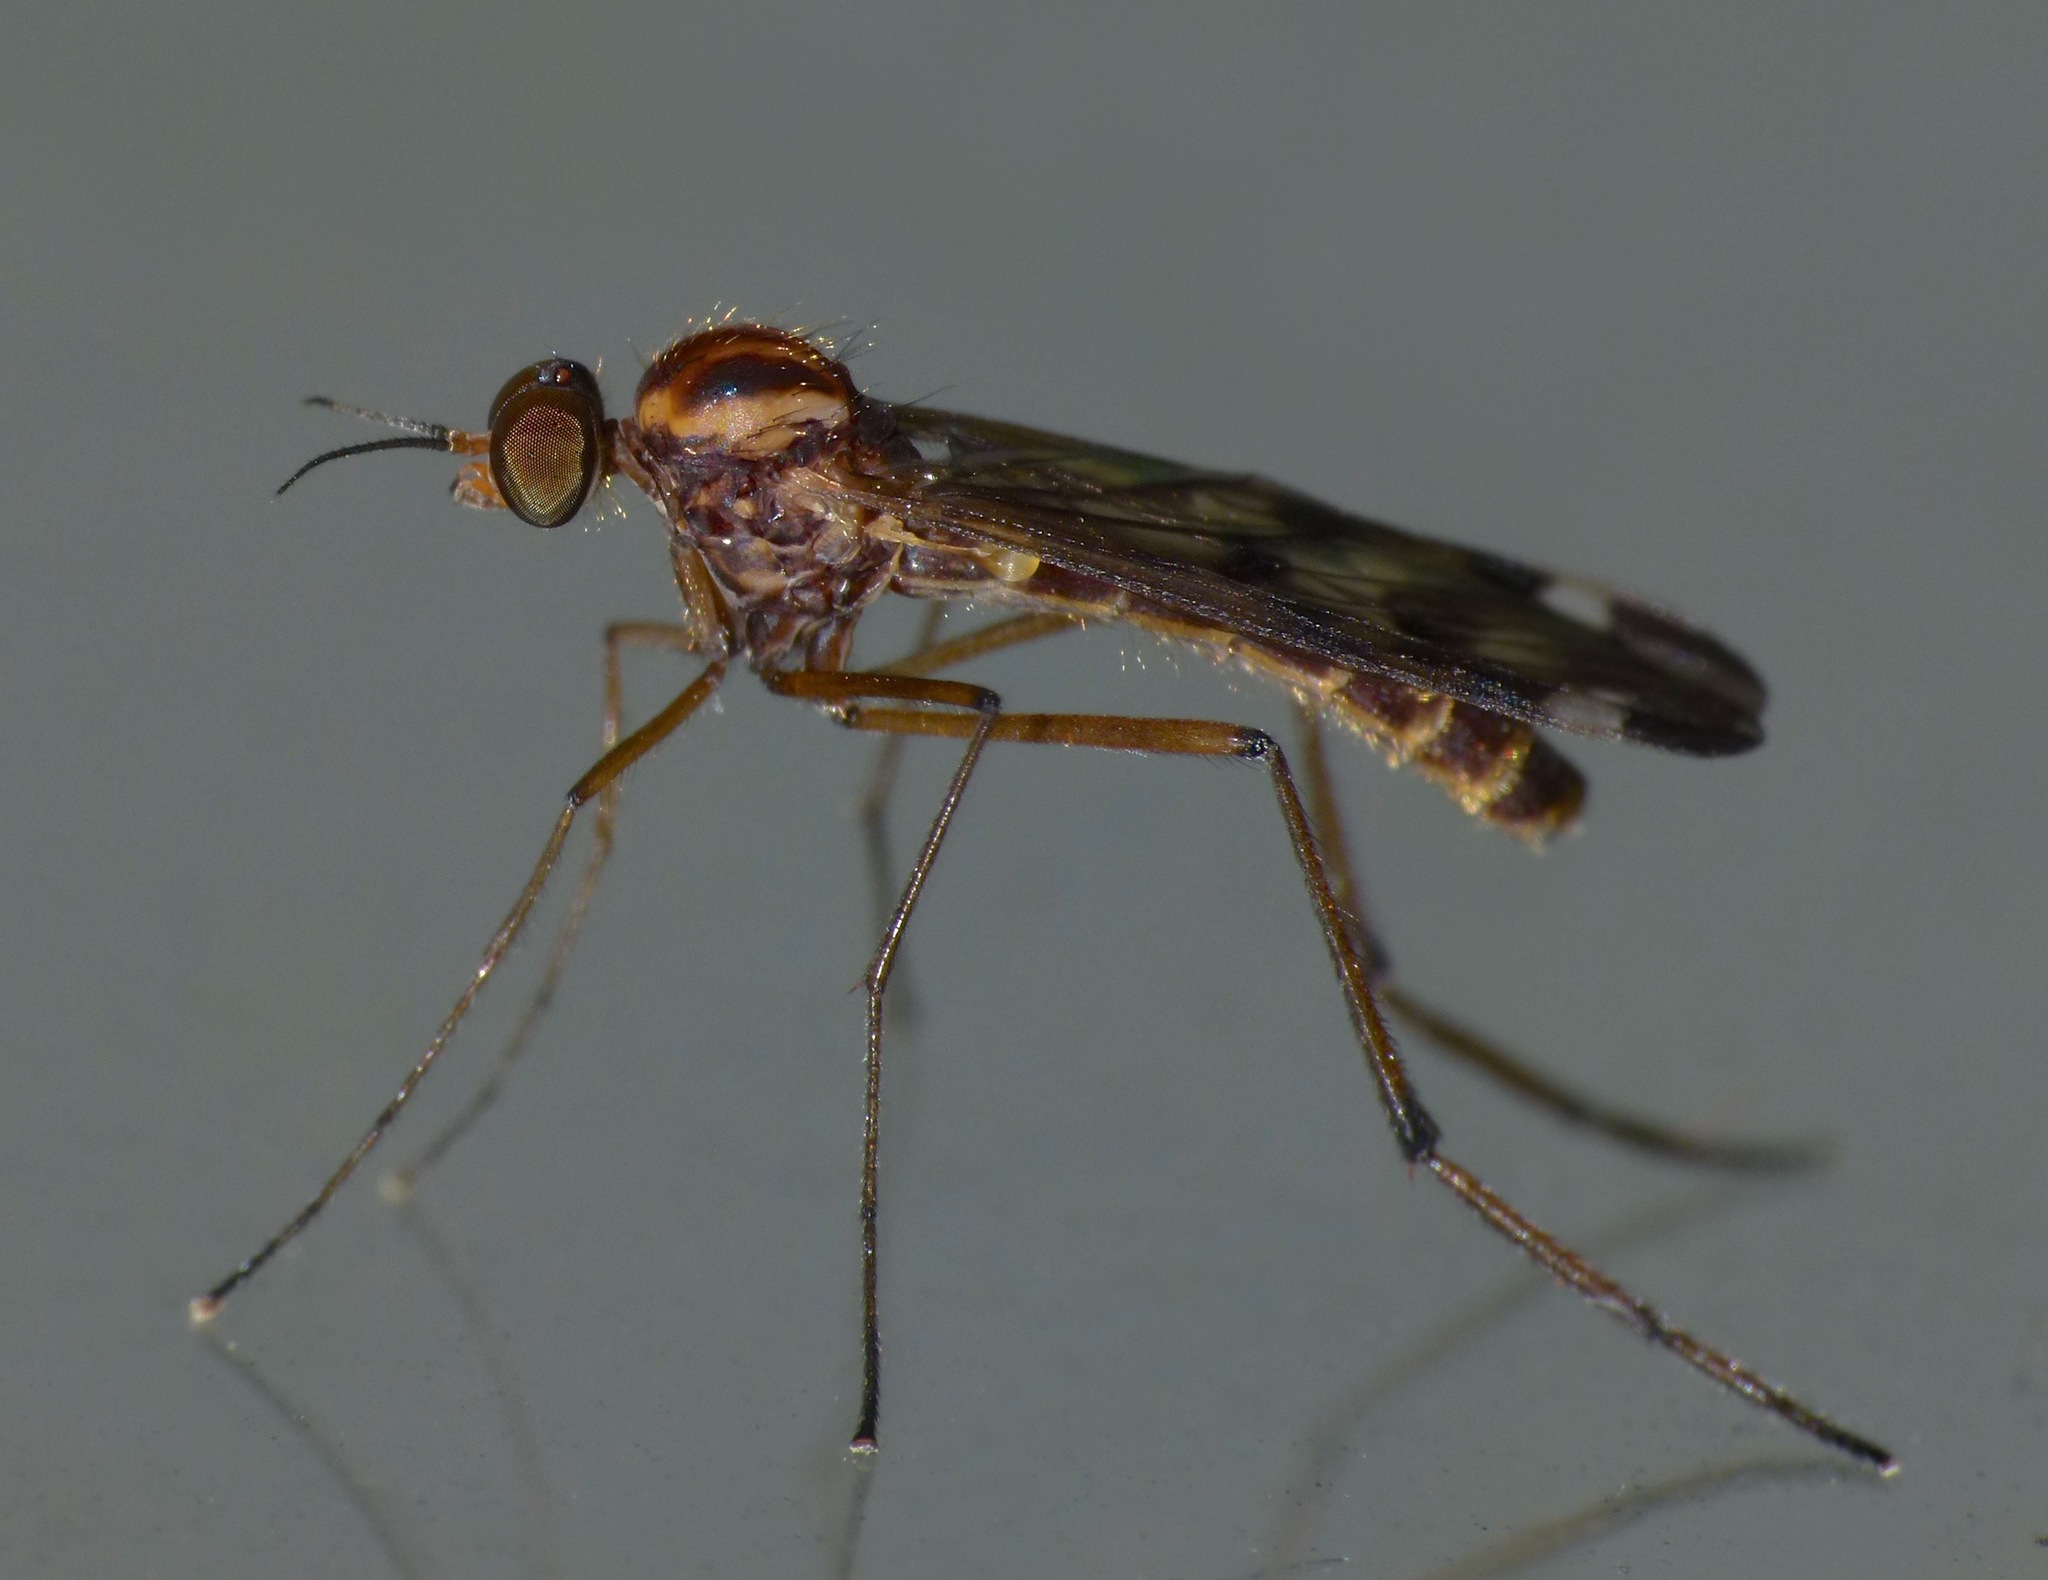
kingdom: Animalia
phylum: Arthropoda
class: Insecta
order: Diptera
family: Anisopodidae
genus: Sylvicola
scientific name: Sylvicola notatus
